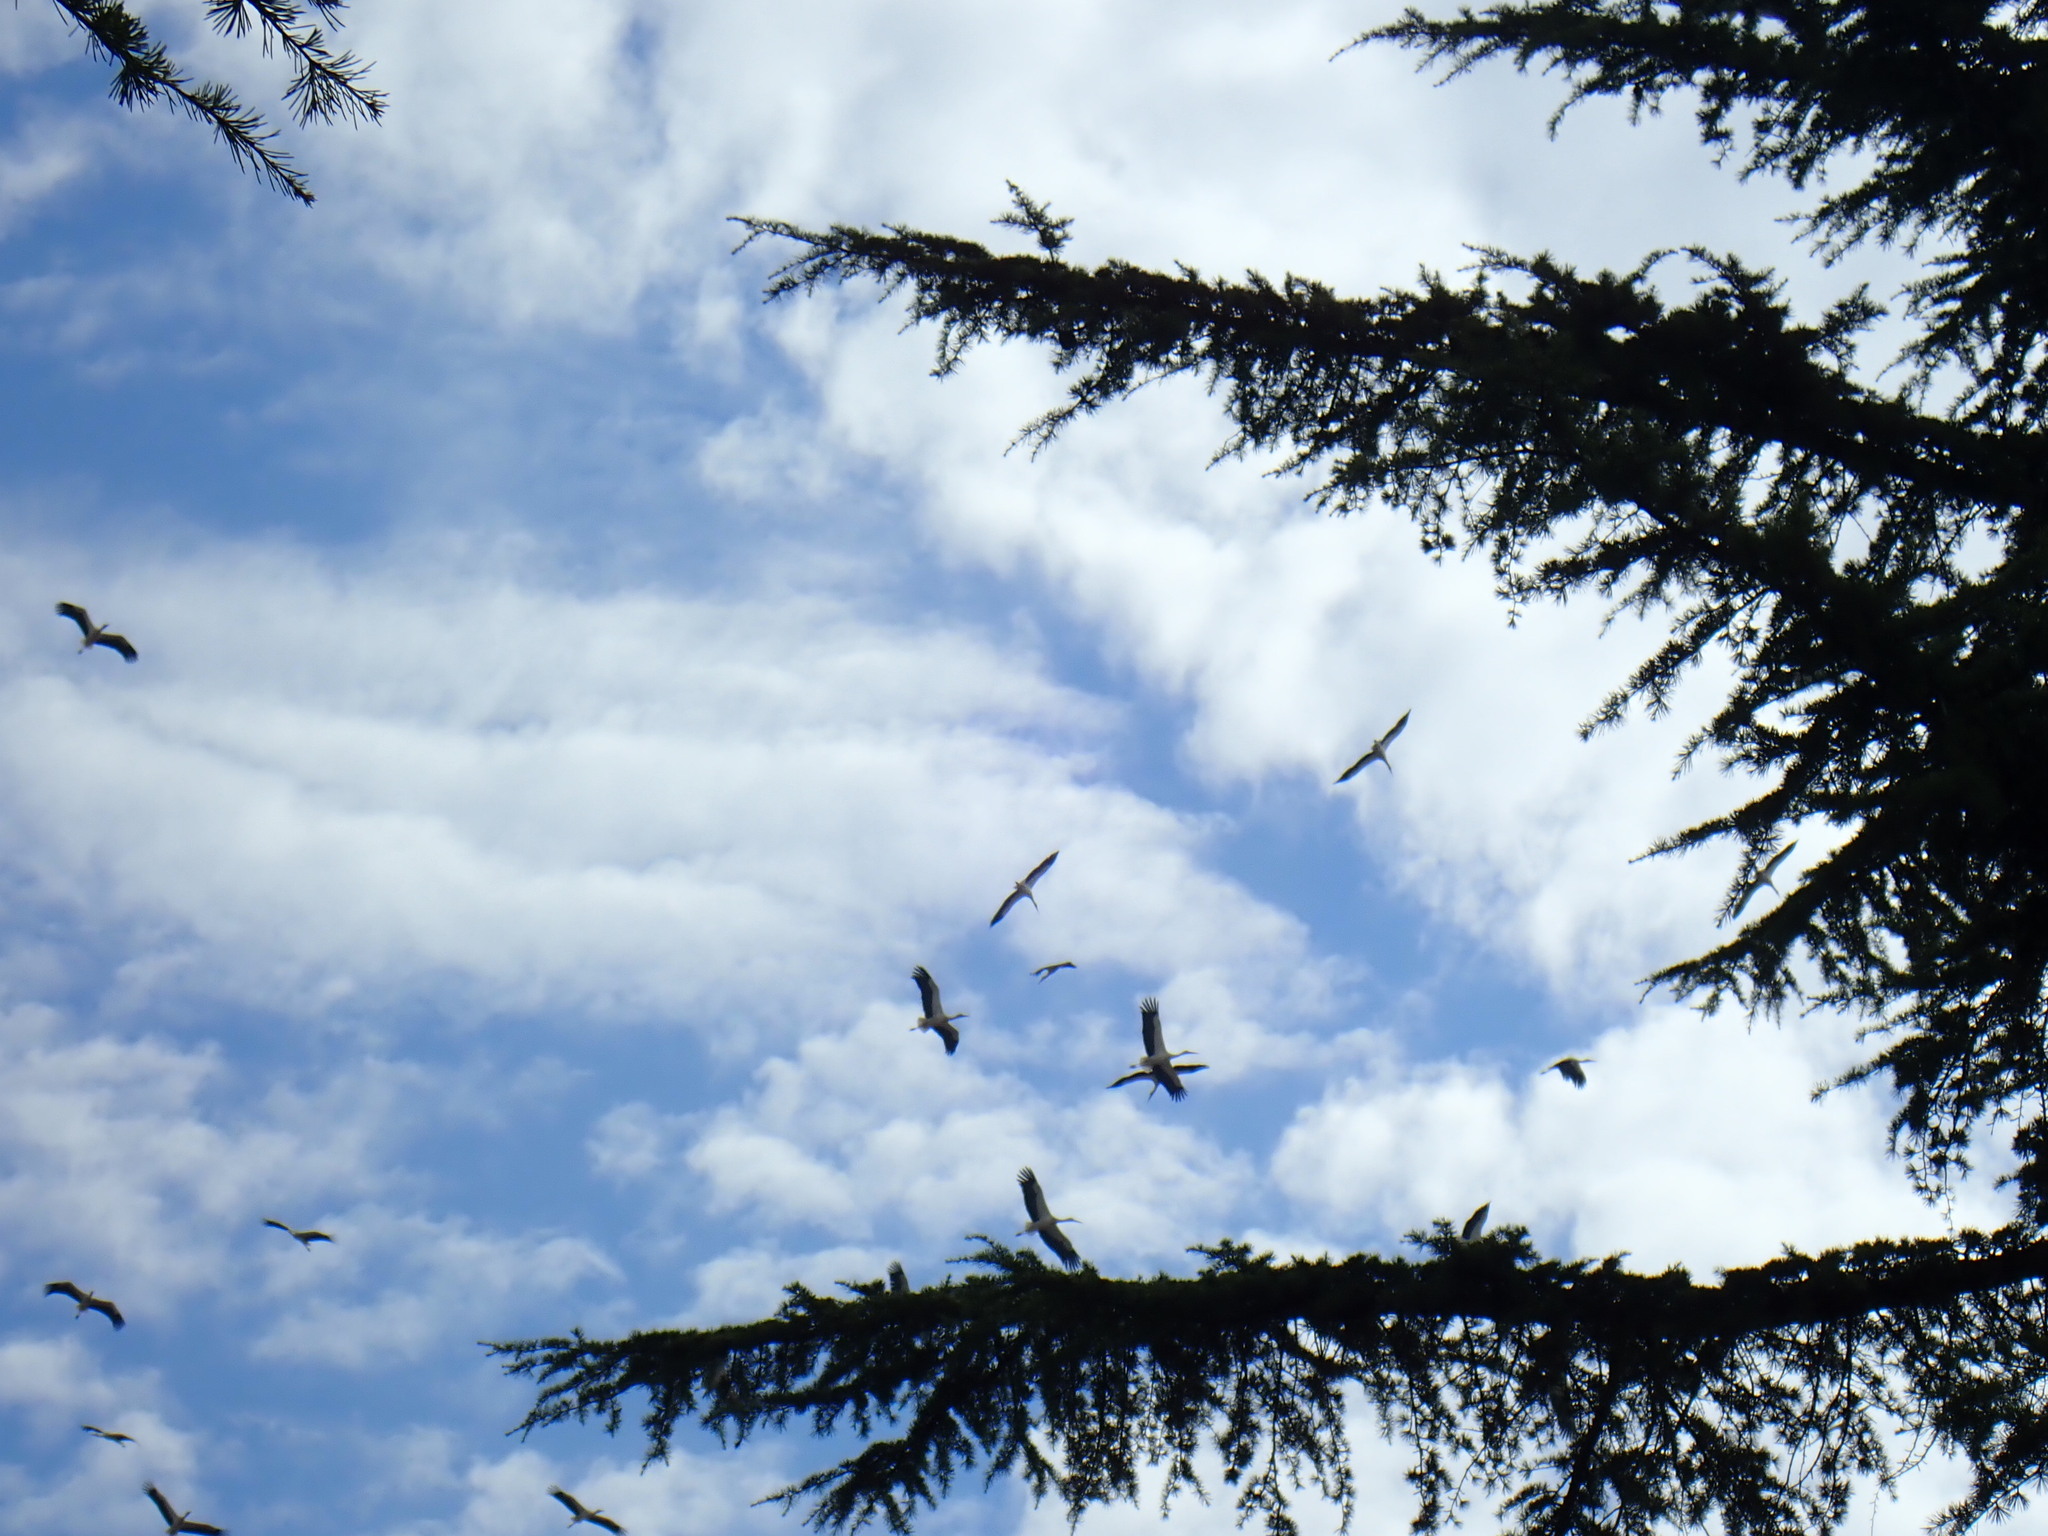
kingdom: Animalia
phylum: Chordata
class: Aves
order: Ciconiiformes
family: Ciconiidae
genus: Ciconia
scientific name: Ciconia ciconia
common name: White stork
